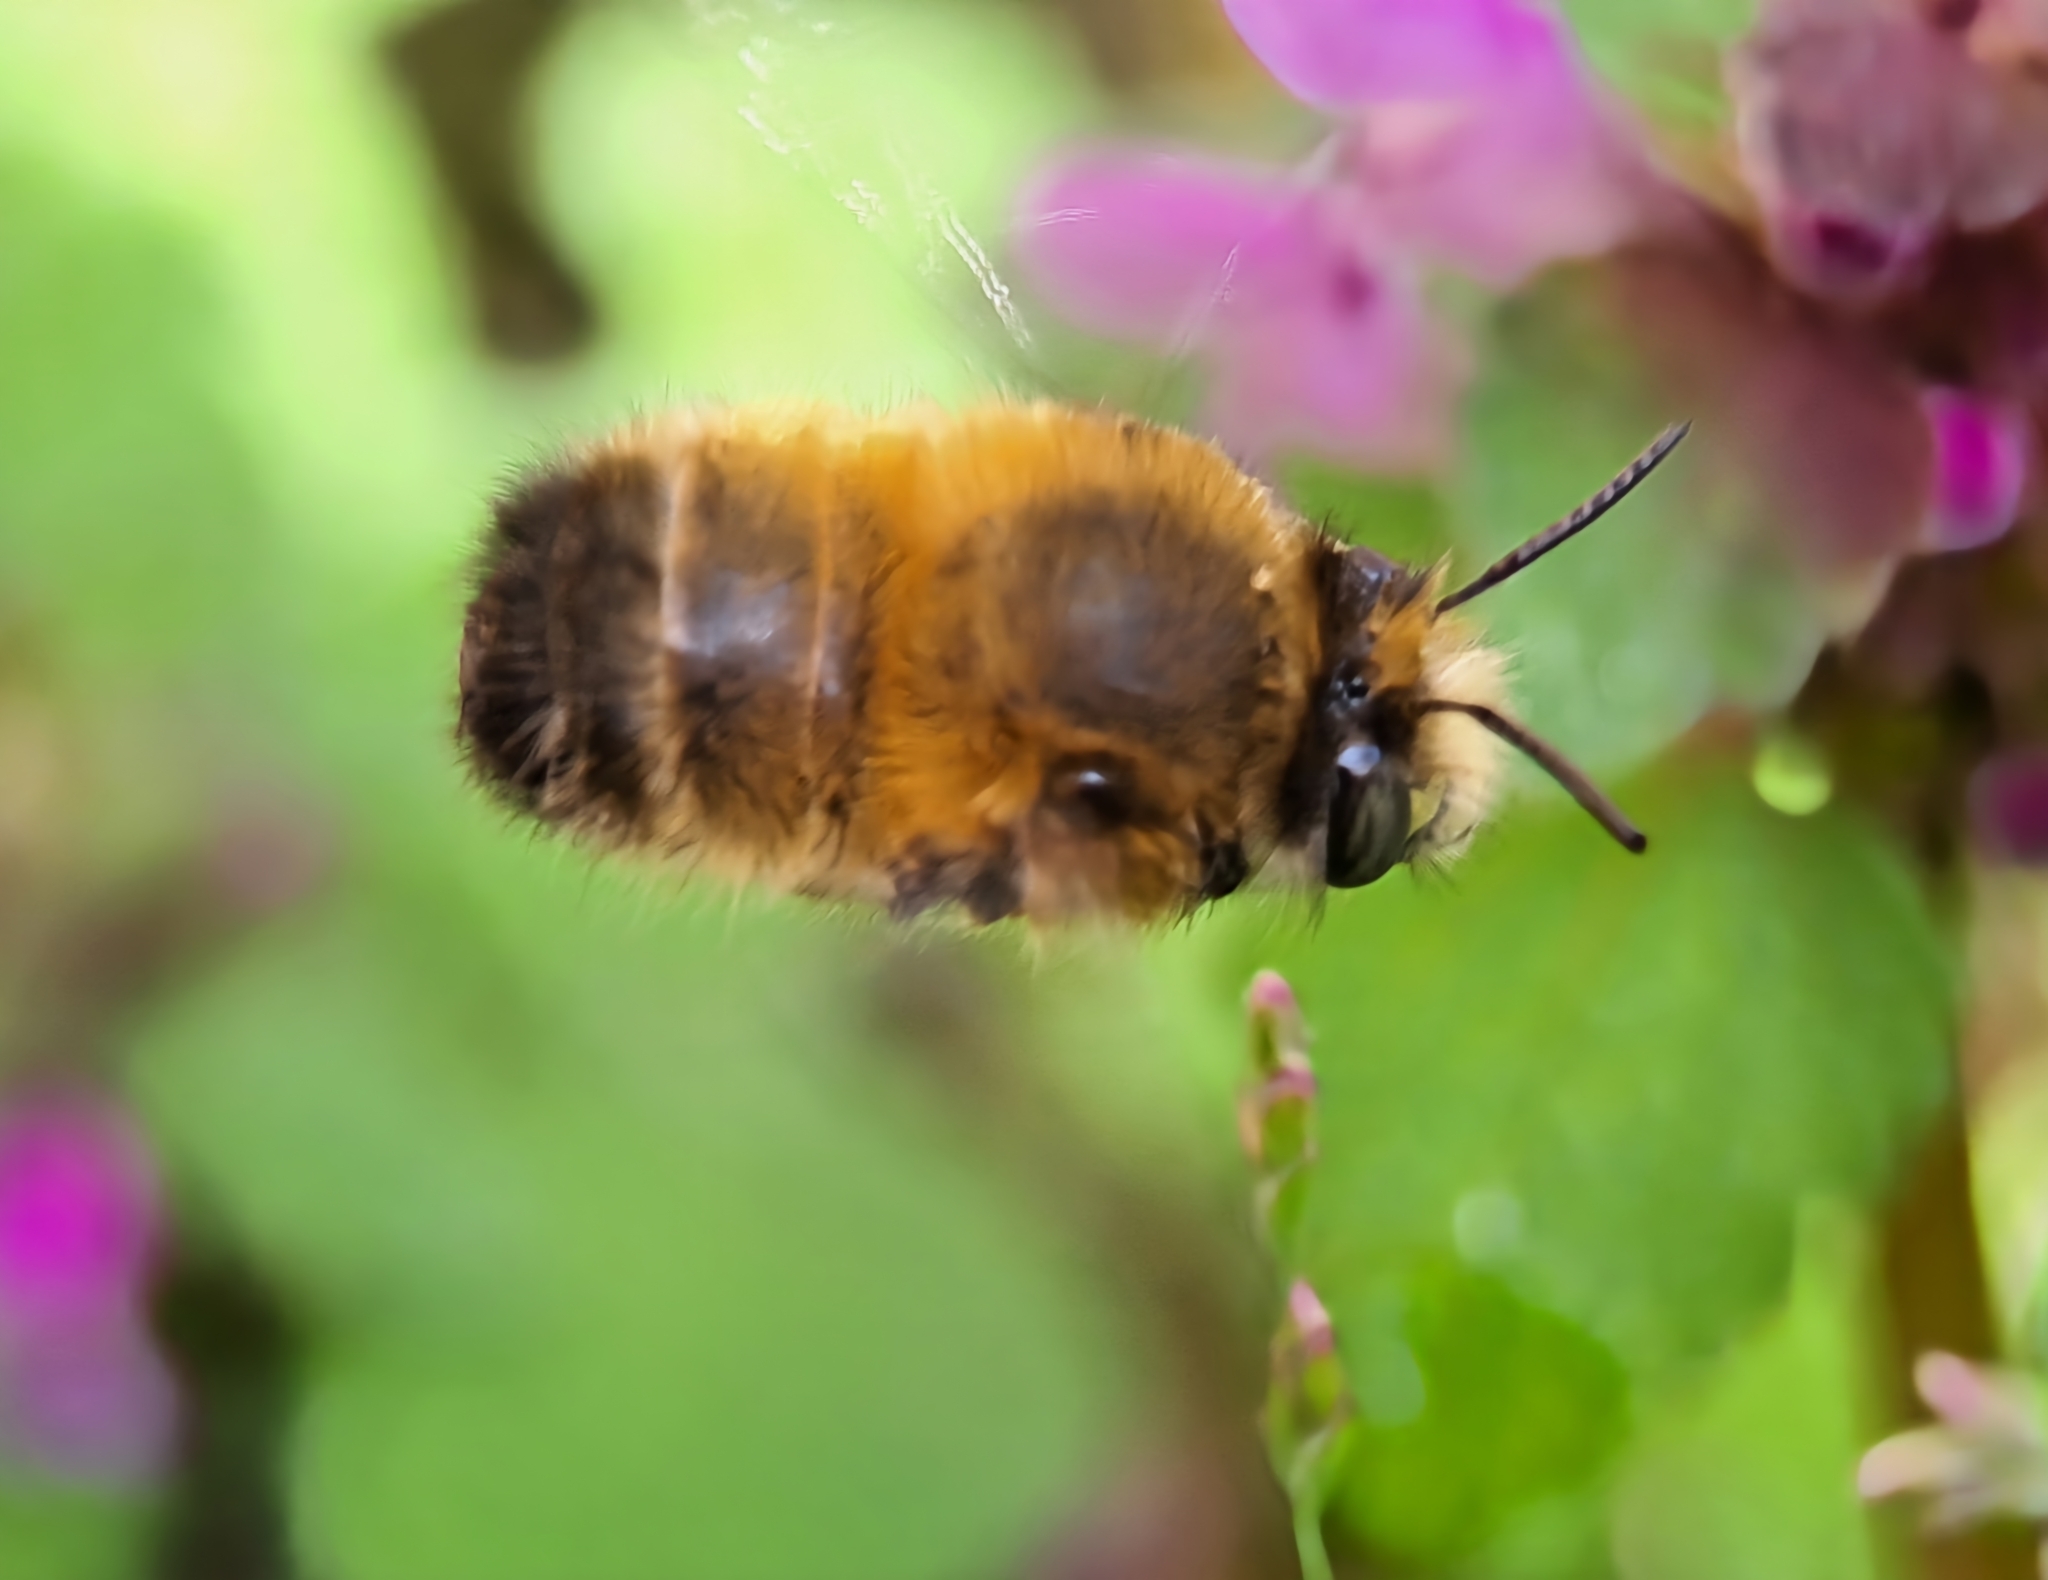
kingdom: Animalia
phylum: Arthropoda
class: Insecta
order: Hymenoptera
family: Apidae
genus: Anthophora
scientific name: Anthophora plumipes
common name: Hairy-footed flower bee
